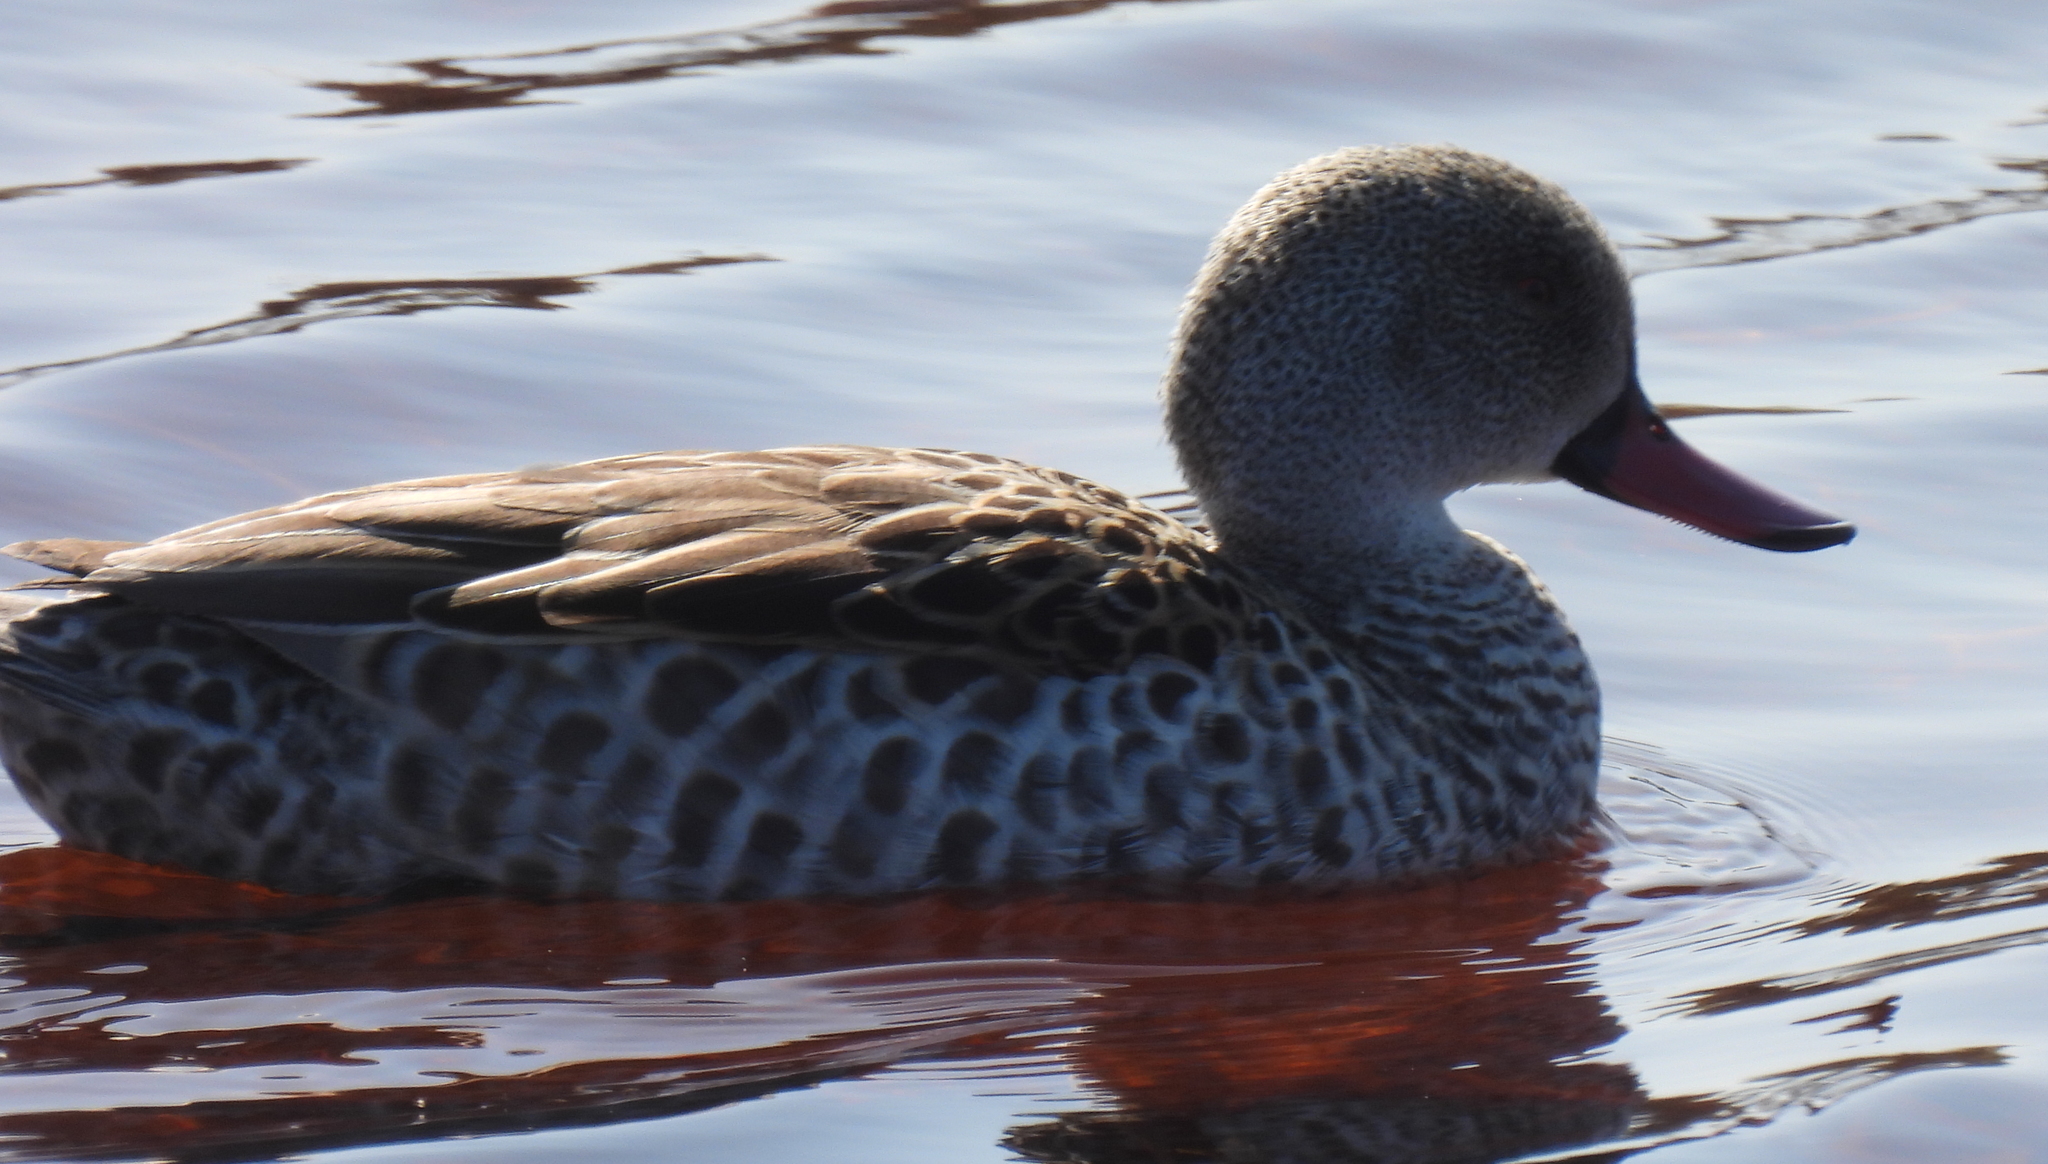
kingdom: Animalia
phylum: Chordata
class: Aves
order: Anseriformes
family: Anatidae
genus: Anas
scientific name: Anas capensis
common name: Cape teal
